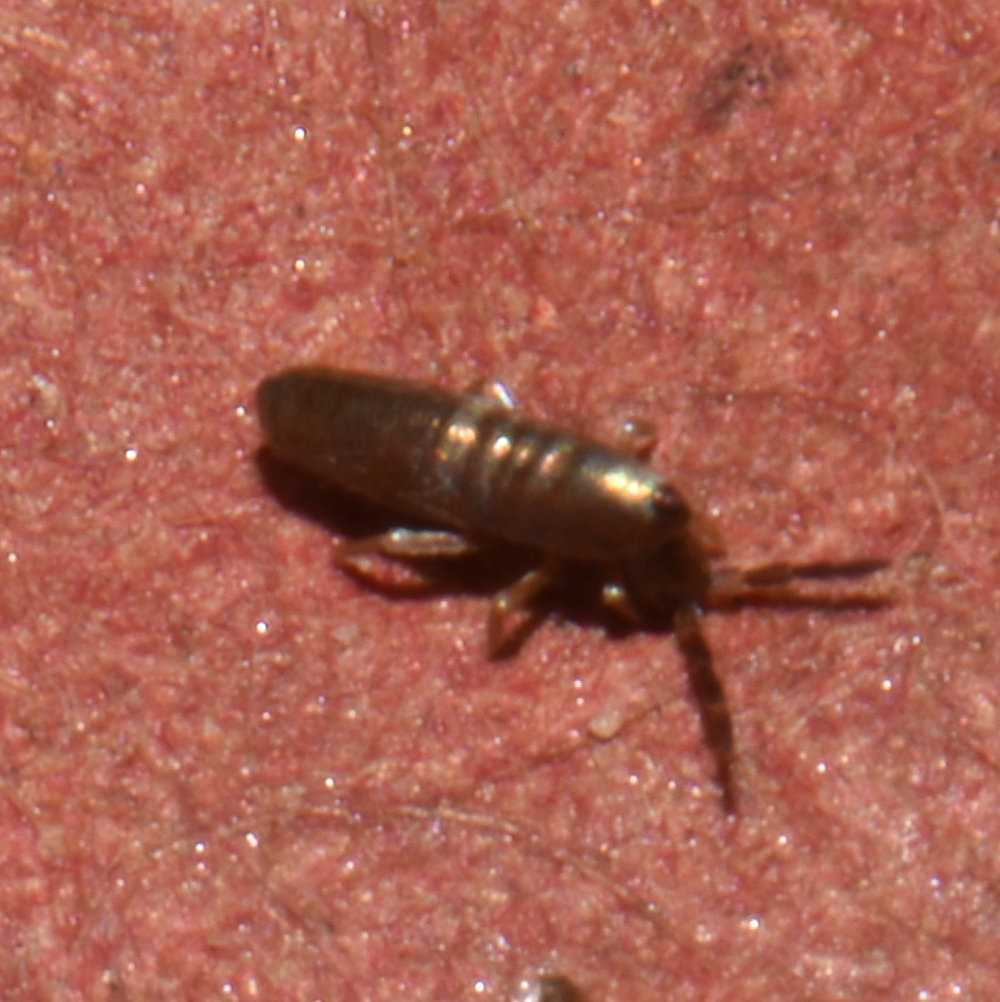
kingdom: Animalia
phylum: Arthropoda
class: Collembola
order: Entomobryomorpha
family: Entomobryidae
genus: Lepidocyrtus
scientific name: Lepidocyrtus paradoxus
